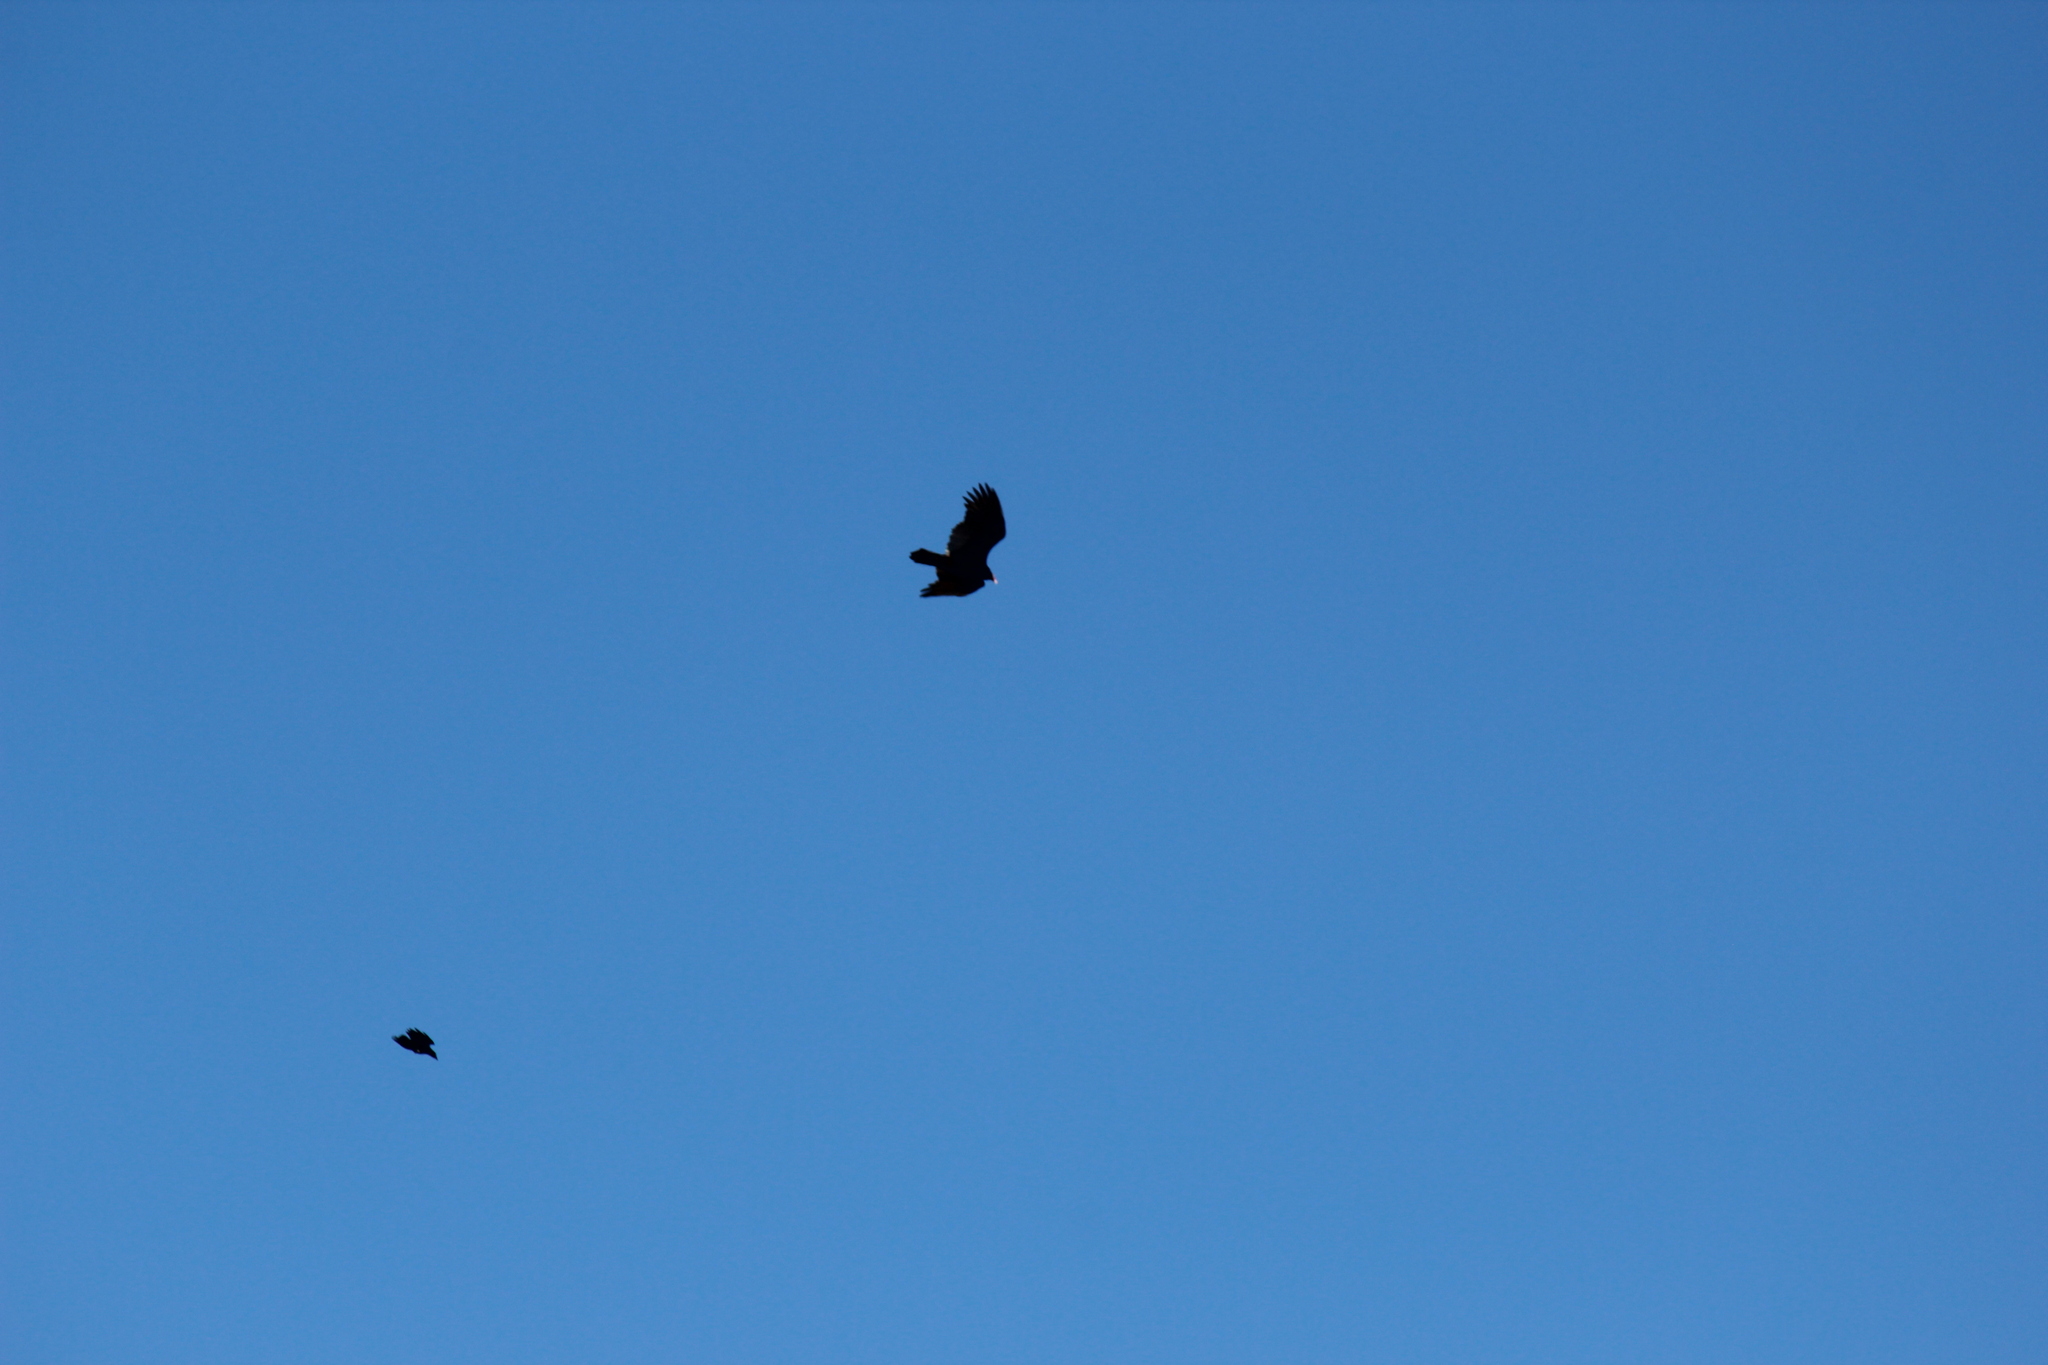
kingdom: Animalia
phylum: Chordata
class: Aves
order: Accipitriformes
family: Cathartidae
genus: Cathartes
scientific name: Cathartes aura
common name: Turkey vulture
